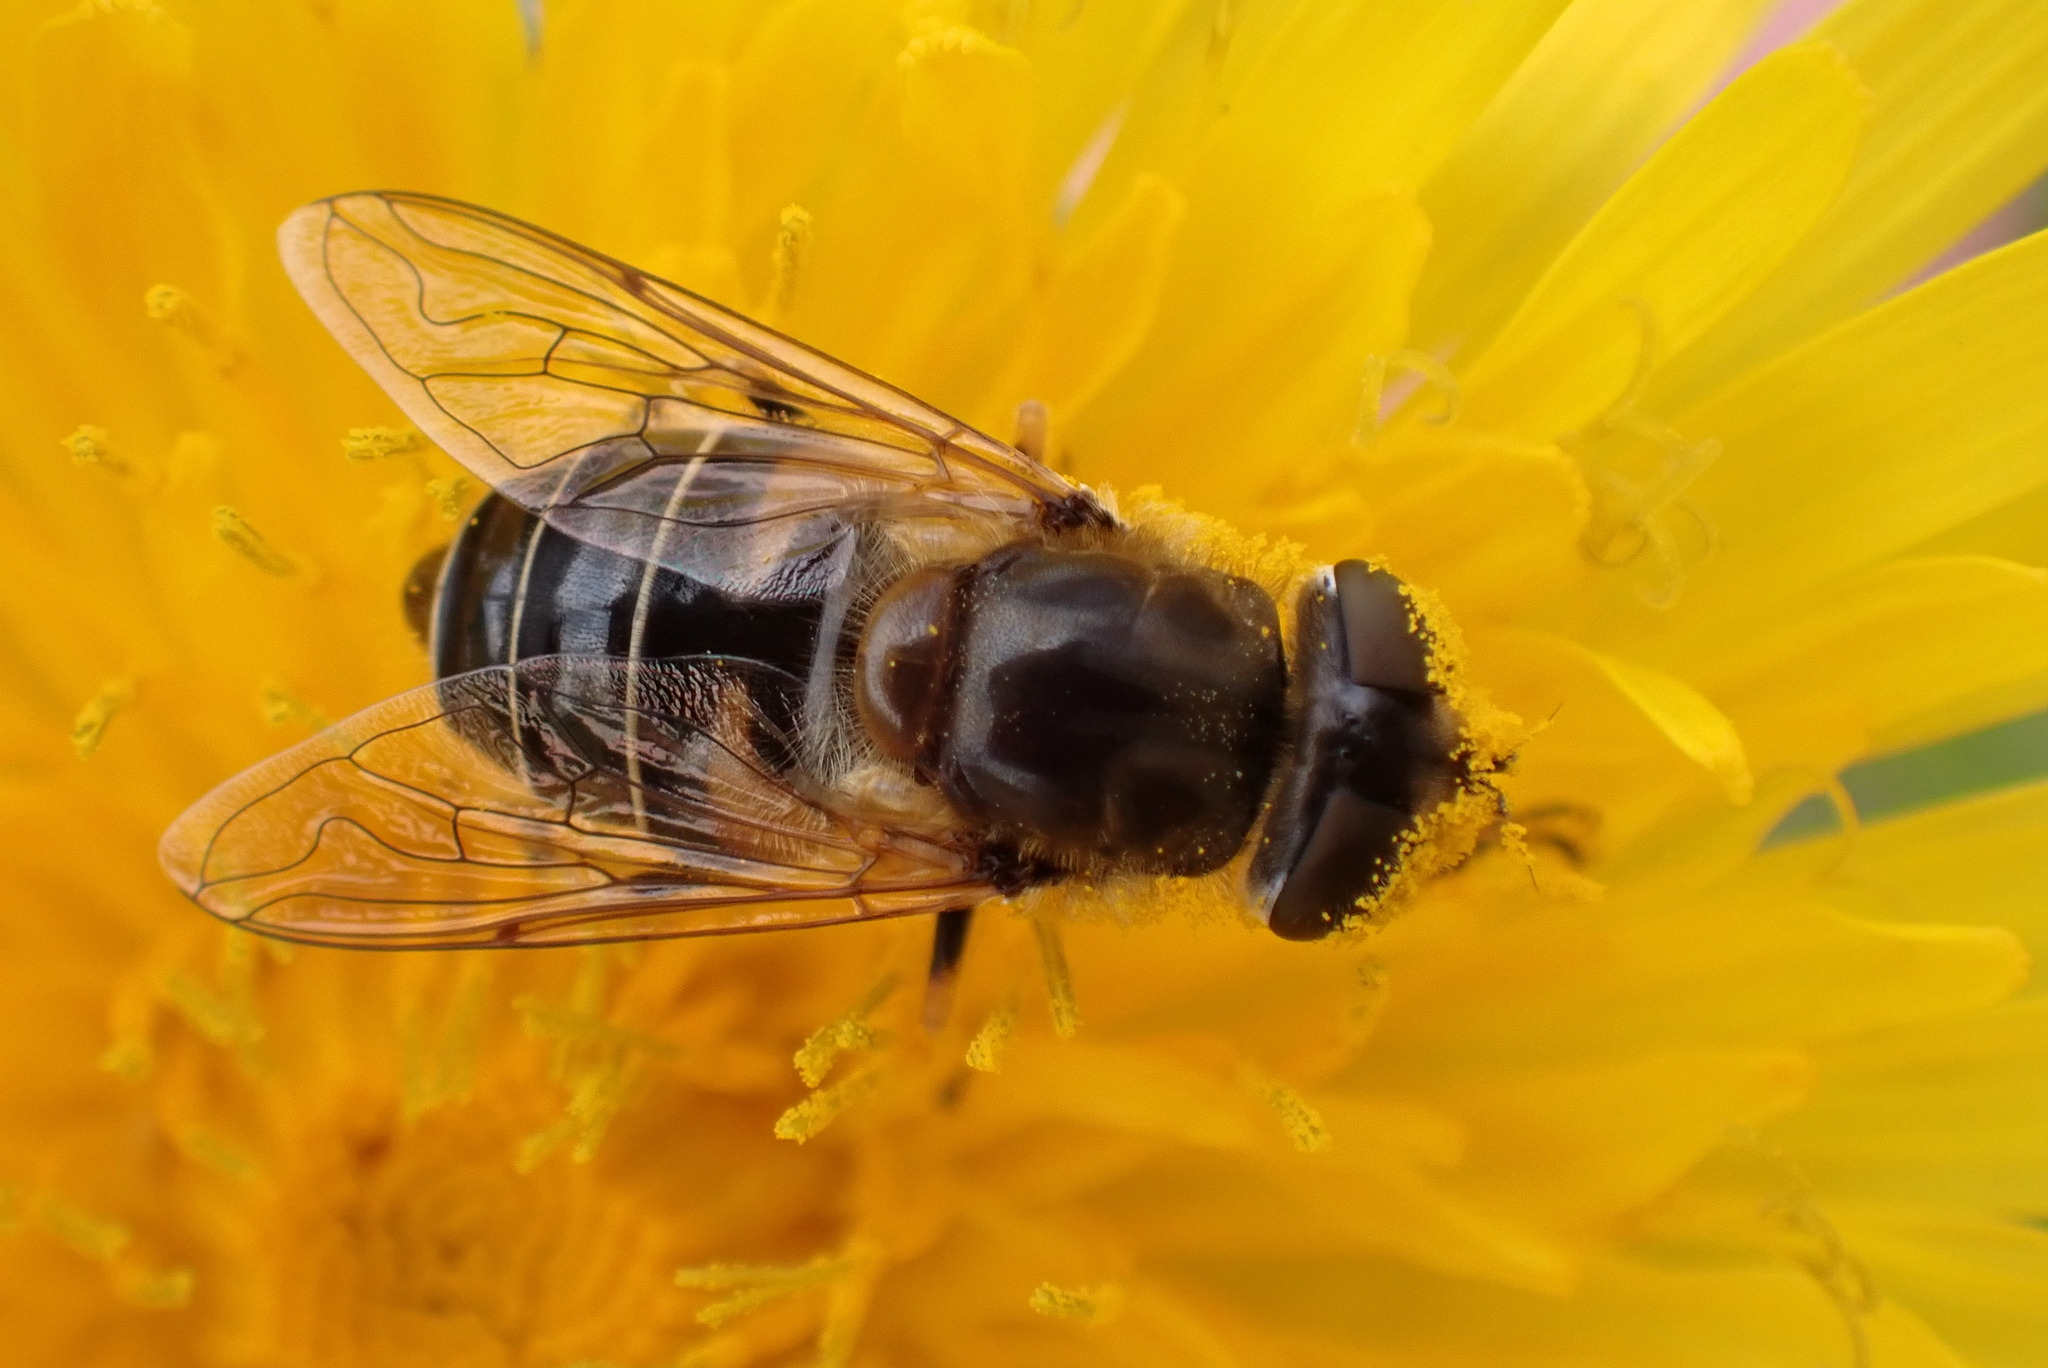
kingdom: Animalia
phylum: Arthropoda
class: Insecta
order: Diptera
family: Syrphidae
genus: Eristalis
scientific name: Eristalis nemorum
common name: Orange-spined drone fly
